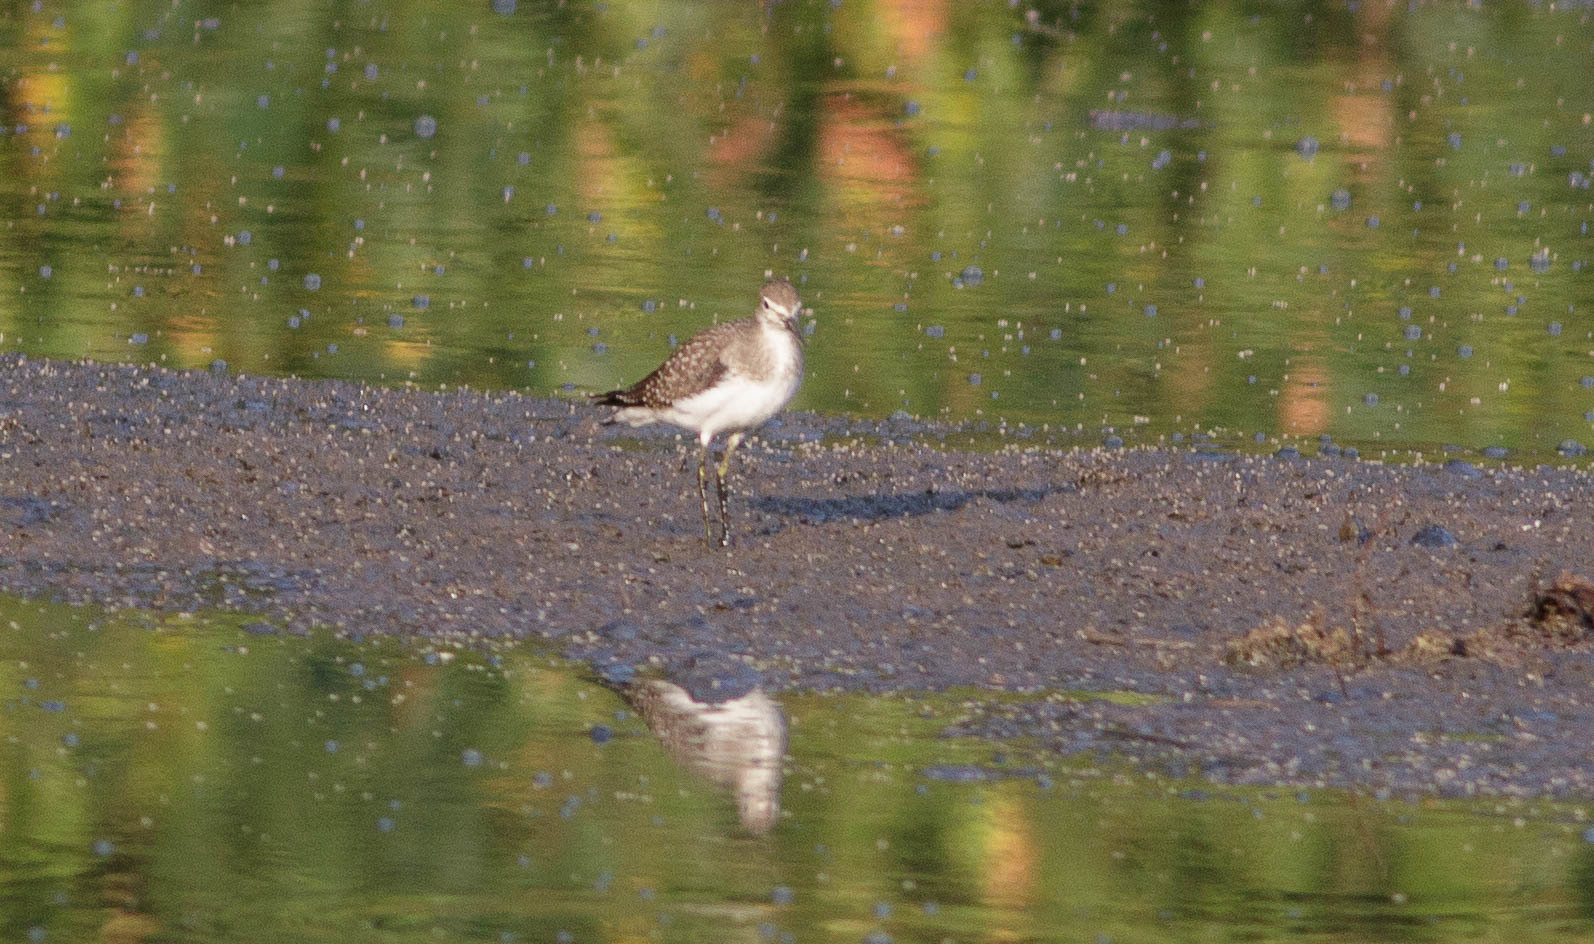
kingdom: Animalia
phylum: Chordata
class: Aves
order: Charadriiformes
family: Scolopacidae
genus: Tringa
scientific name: Tringa solitaria
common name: Solitary sandpiper
